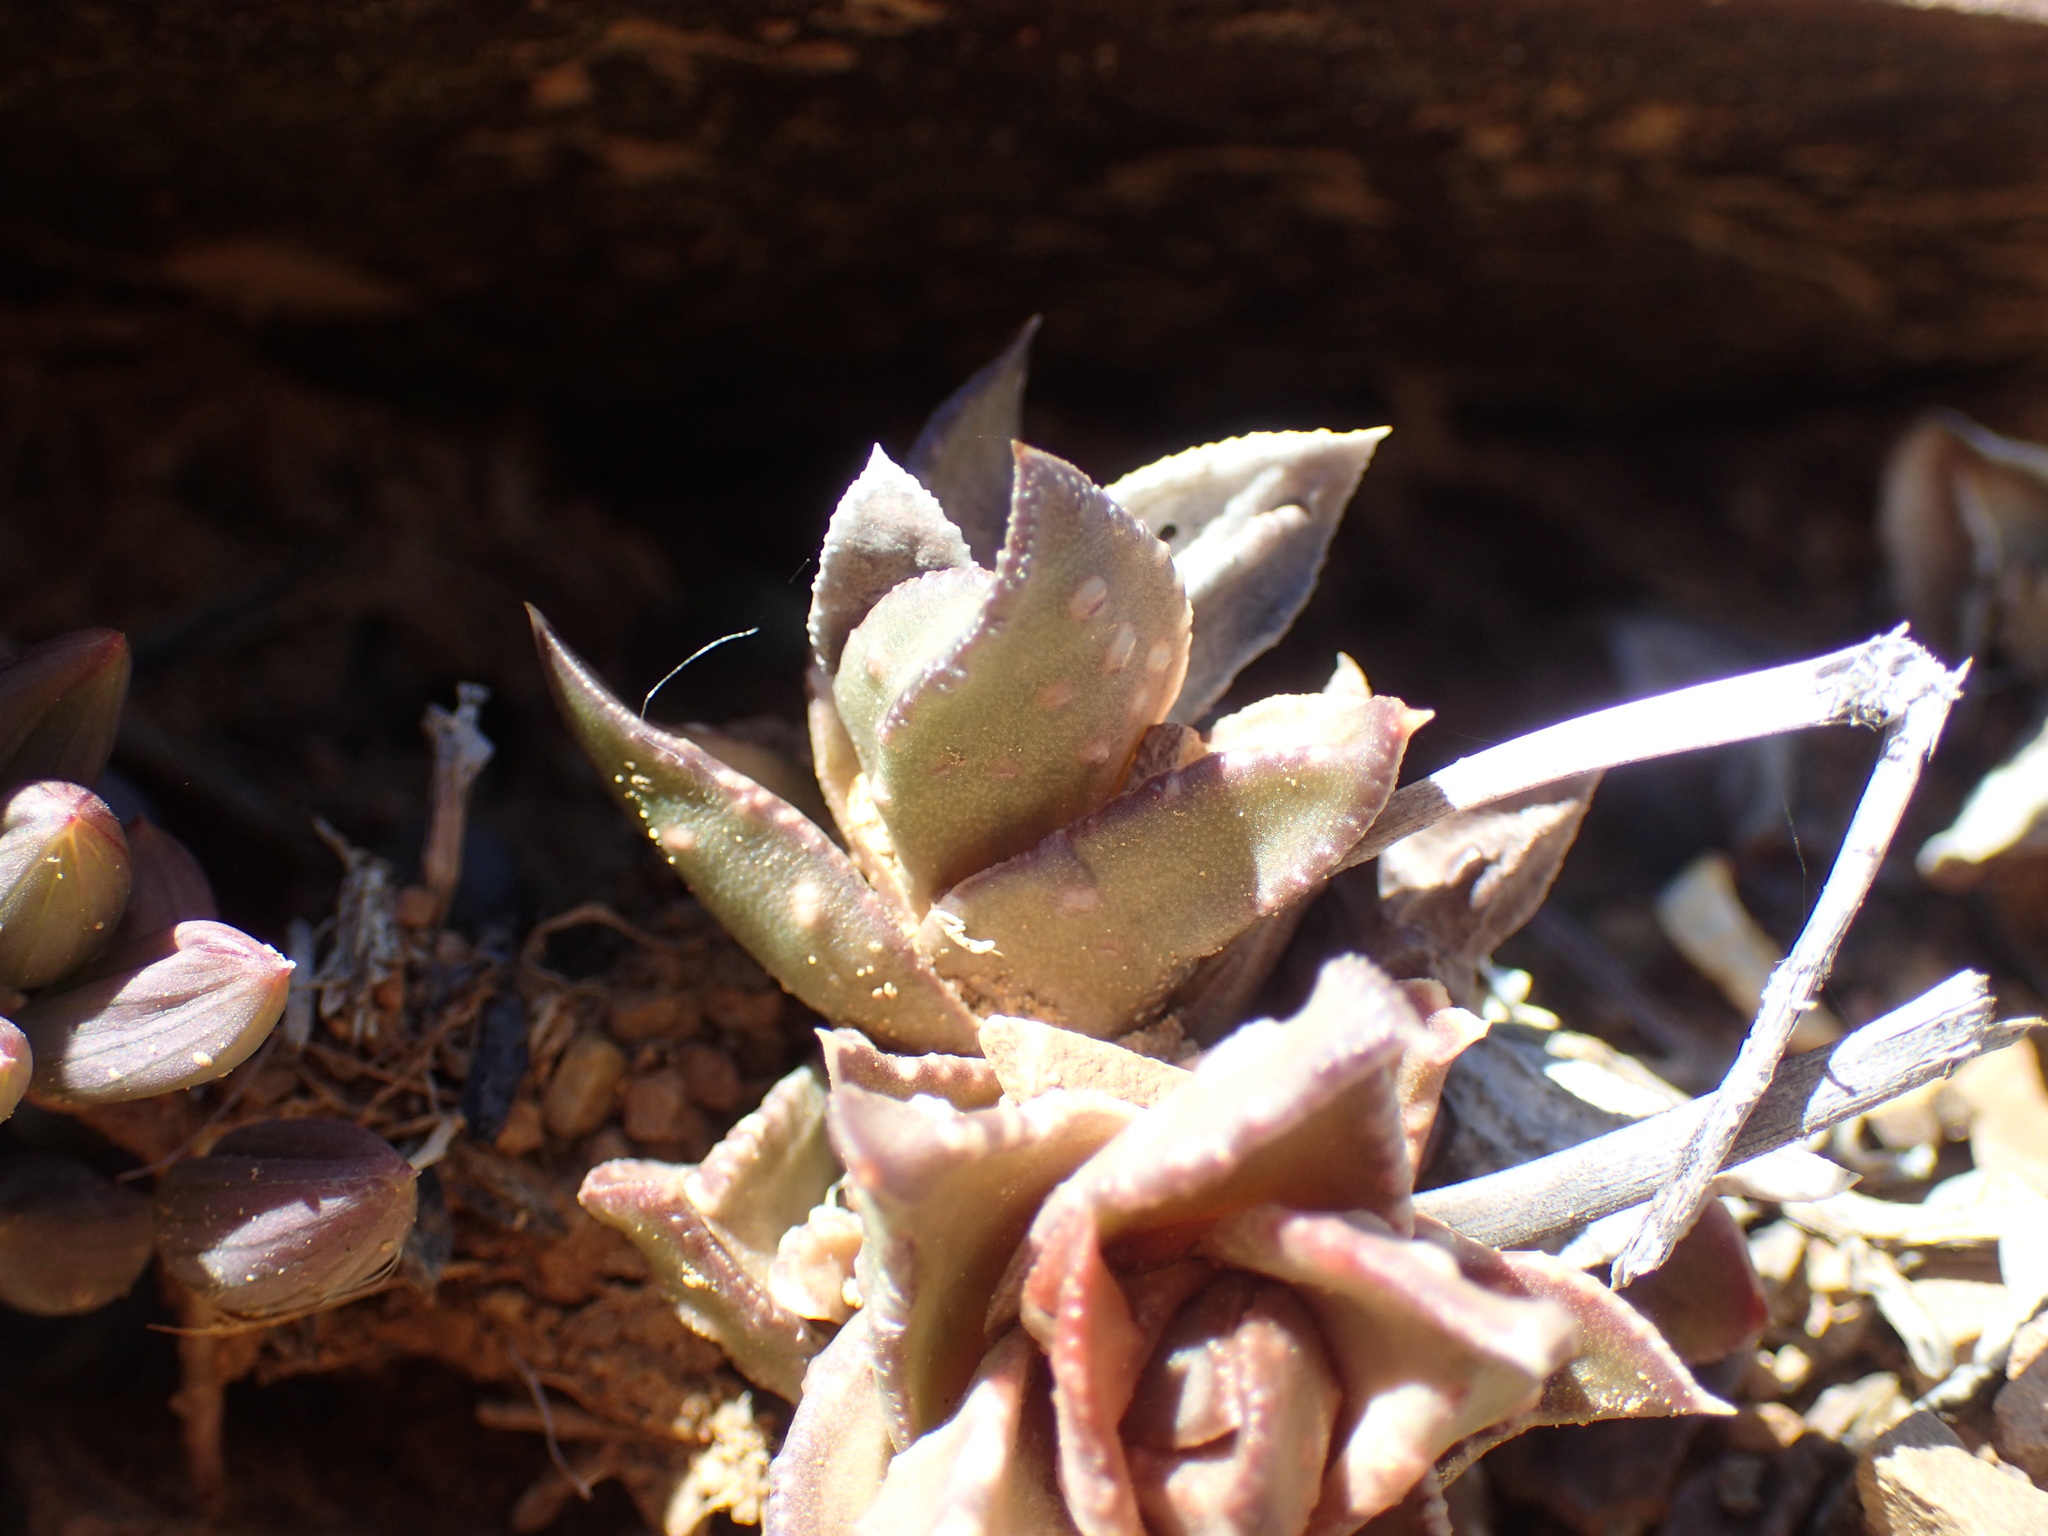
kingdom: Plantae
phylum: Tracheophyta
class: Liliopsida
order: Asparagales
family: Asphodelaceae
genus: Astroloba
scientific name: Astroloba bullulata
